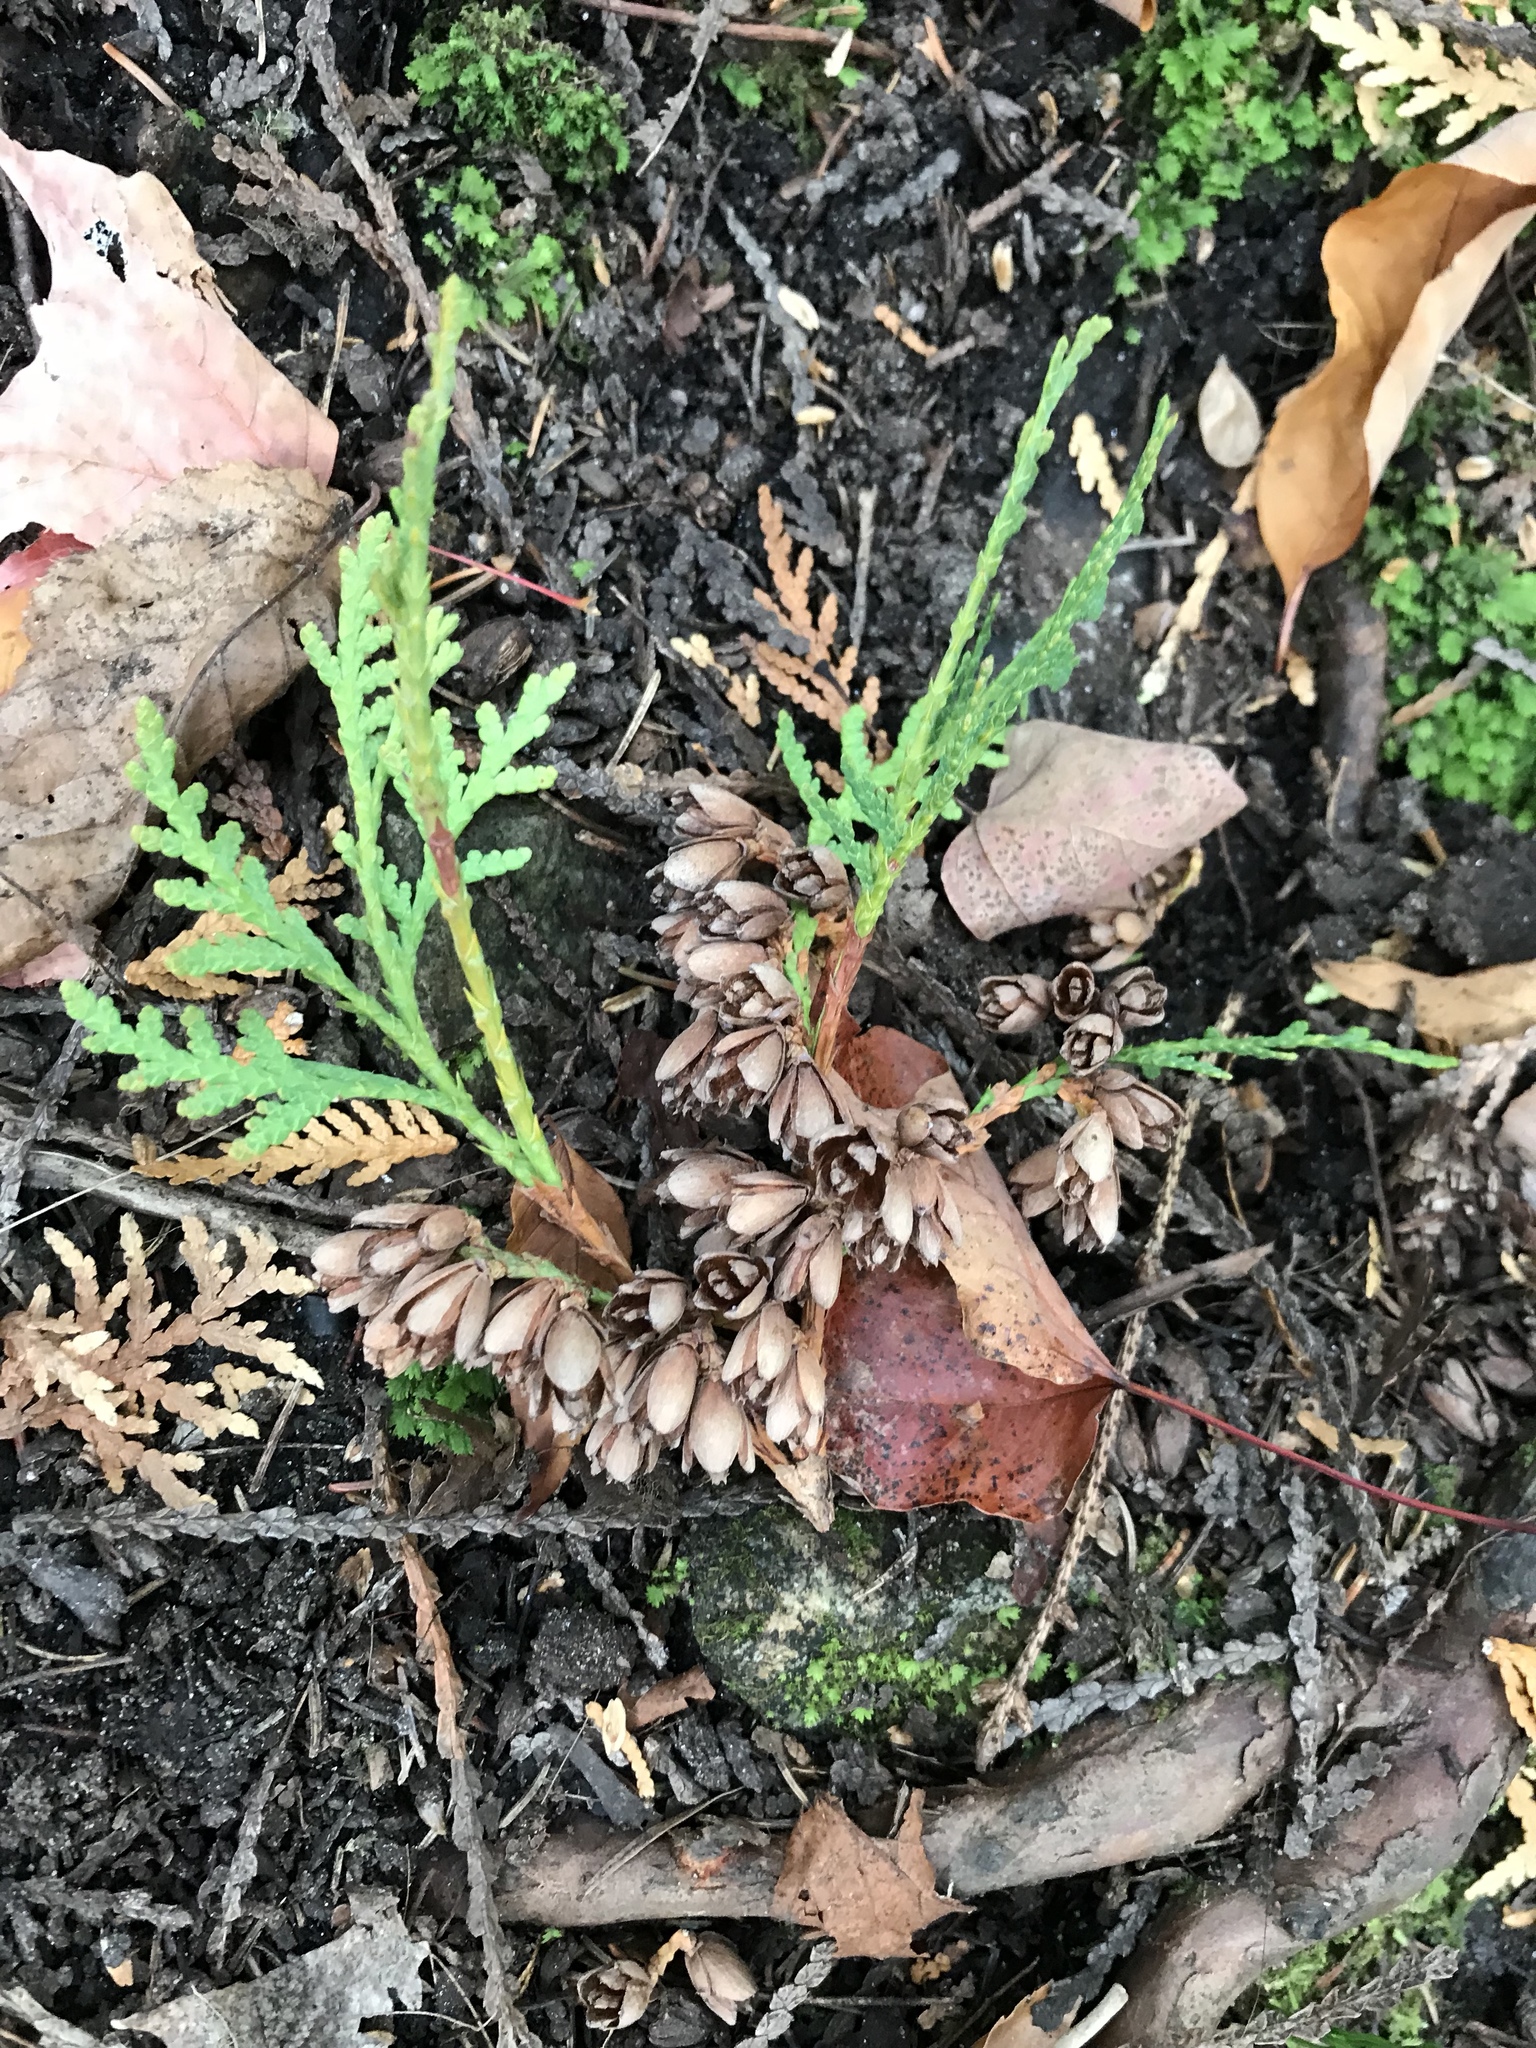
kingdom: Plantae
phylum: Tracheophyta
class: Pinopsida
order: Pinales
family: Cupressaceae
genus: Thuja
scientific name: Thuja occidentalis
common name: Northern white-cedar
